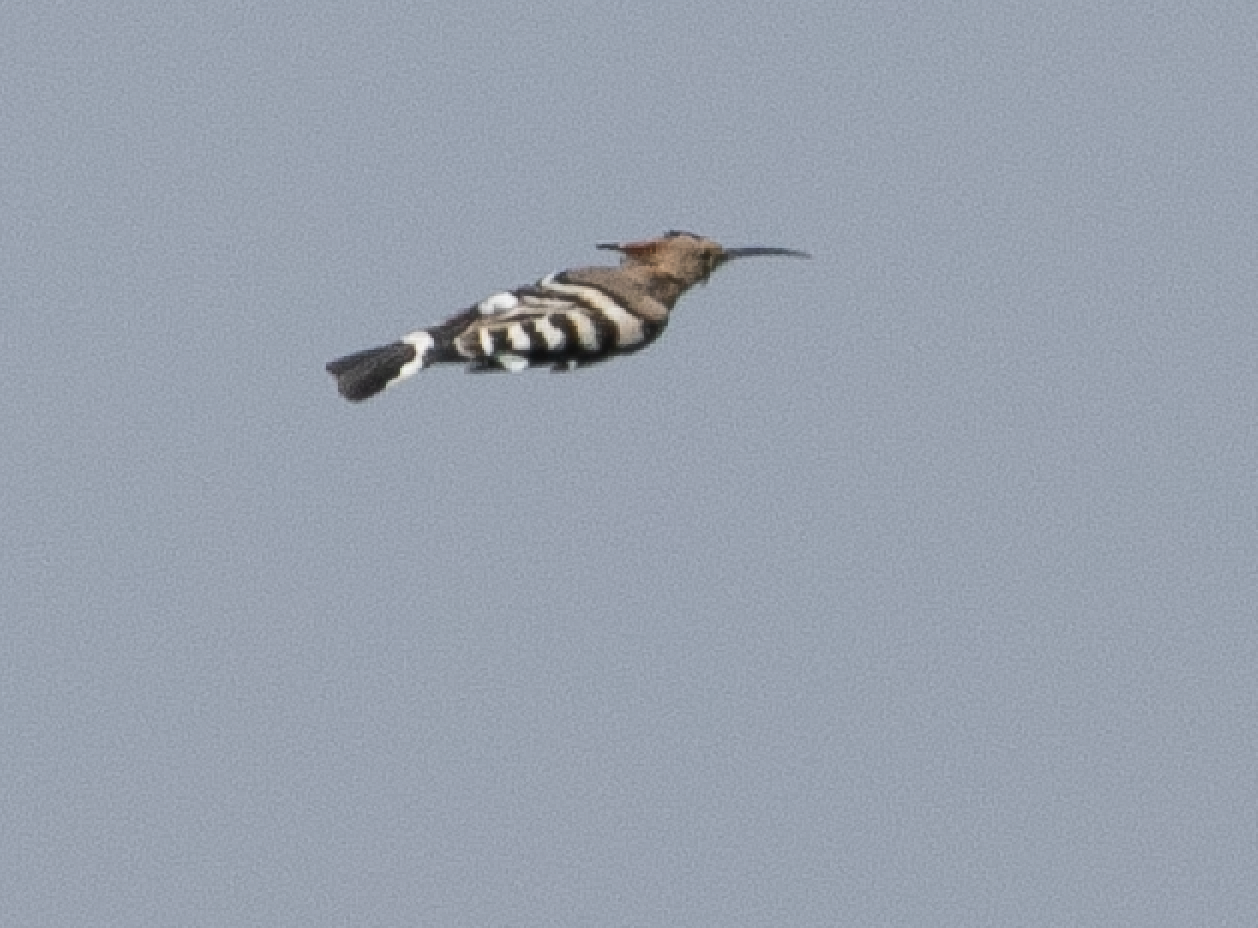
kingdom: Animalia
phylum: Chordata
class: Aves
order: Bucerotiformes
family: Upupidae
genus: Upupa
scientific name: Upupa epops
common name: Eurasian hoopoe
